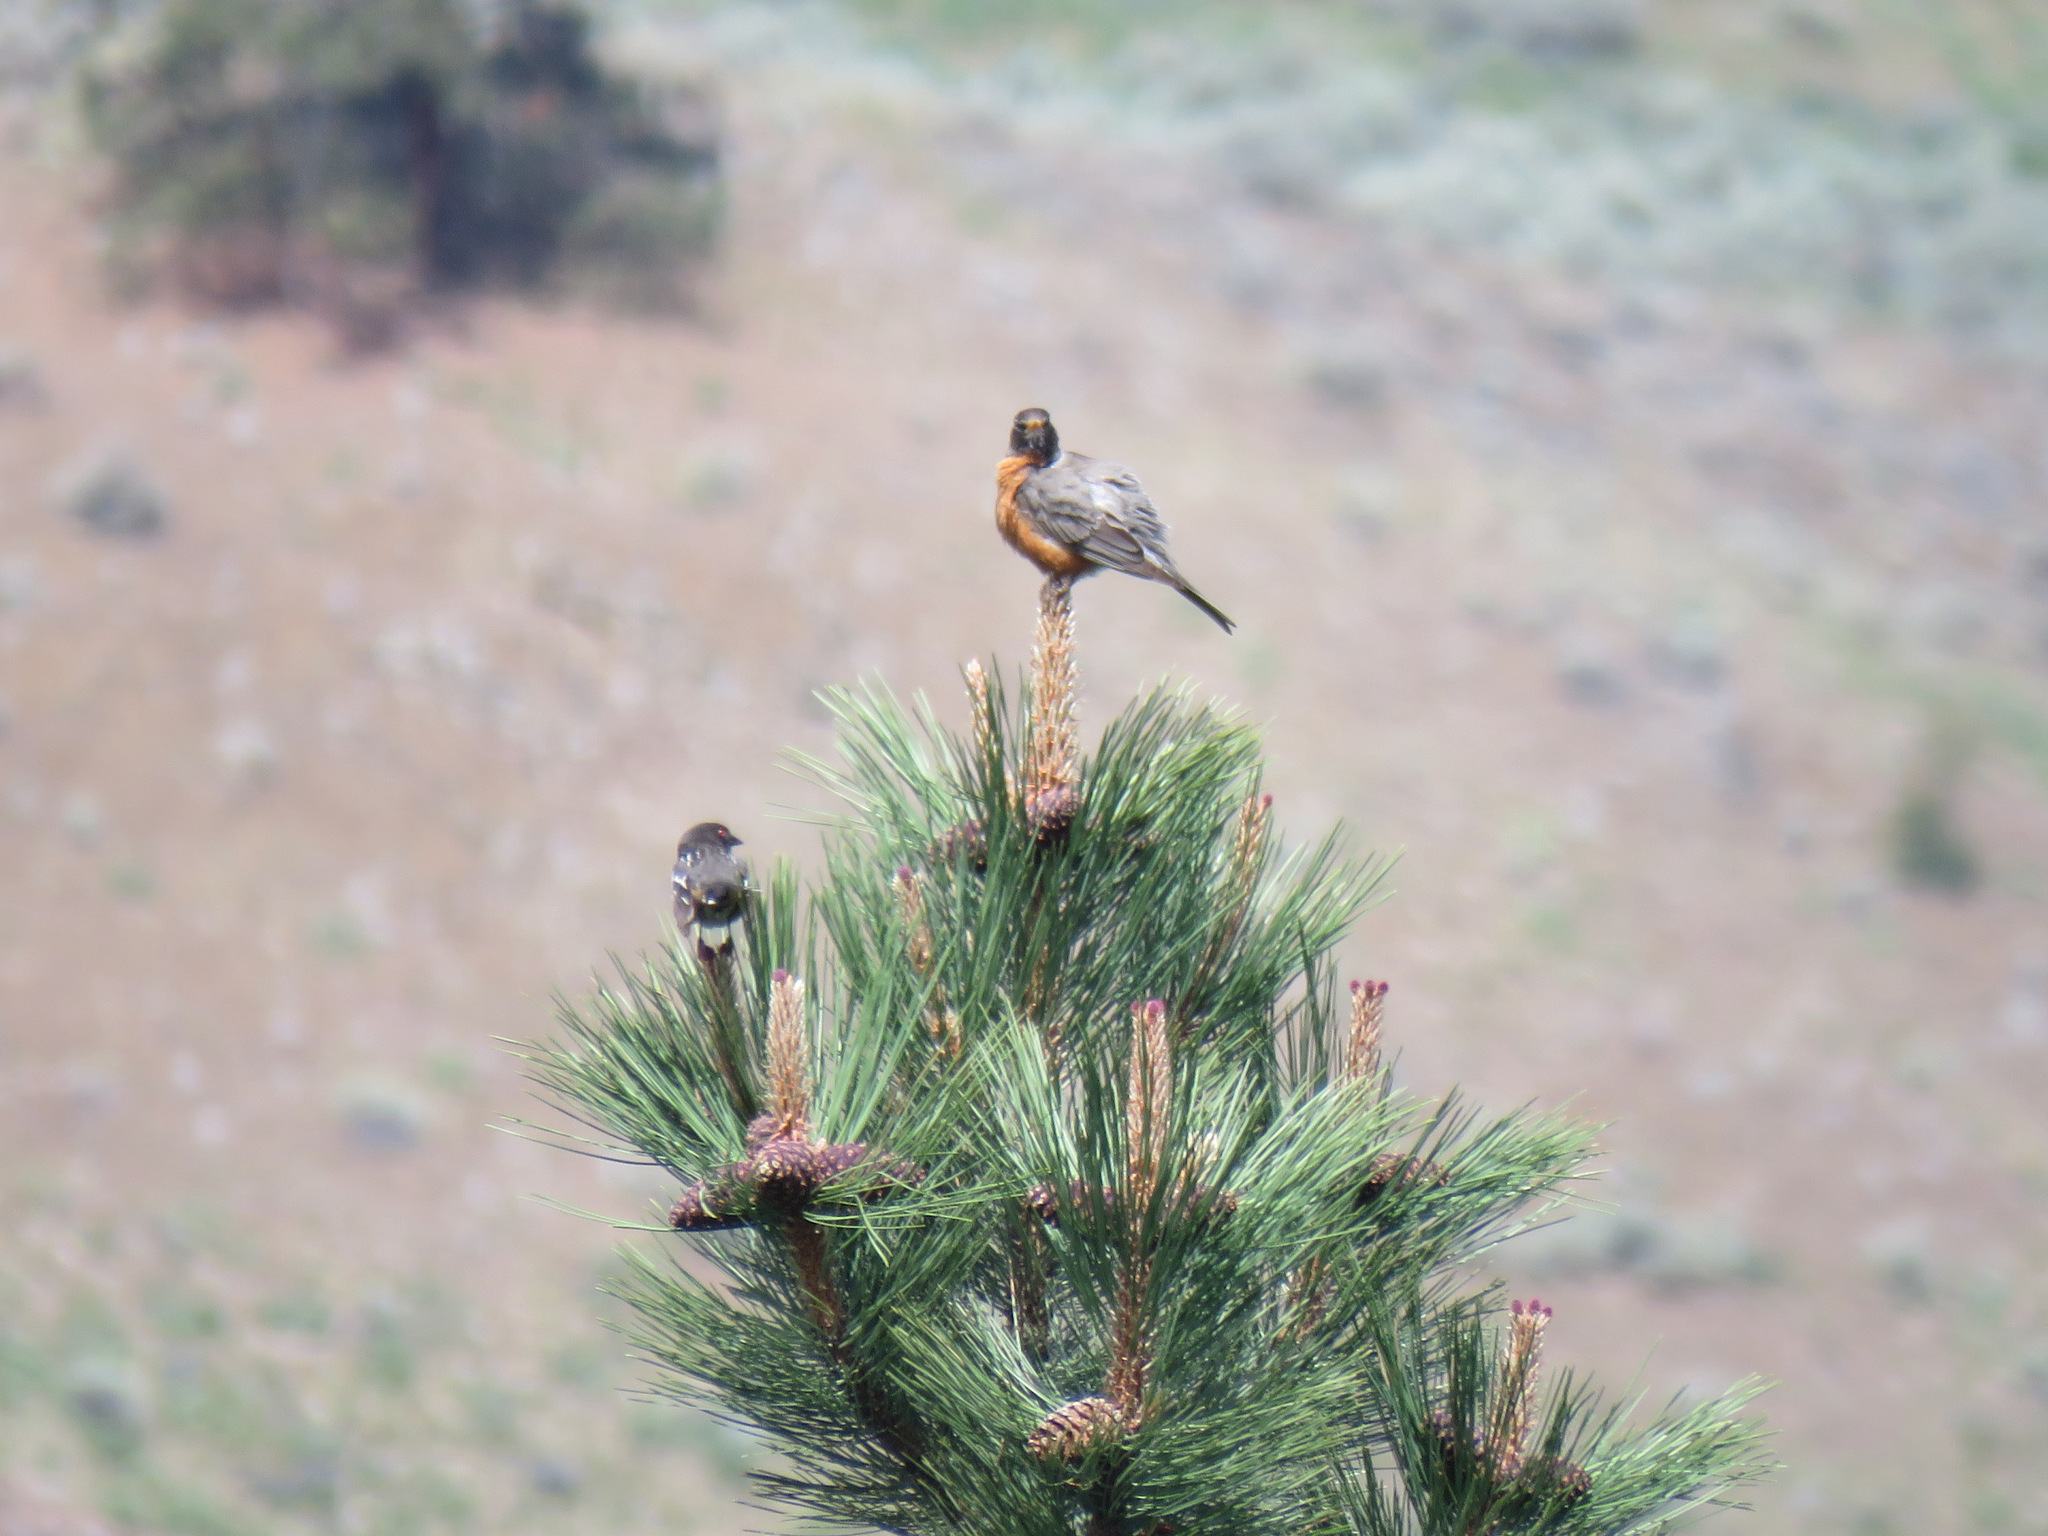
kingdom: Animalia
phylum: Chordata
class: Aves
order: Passeriformes
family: Turdidae
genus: Turdus
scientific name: Turdus migratorius
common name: American robin
